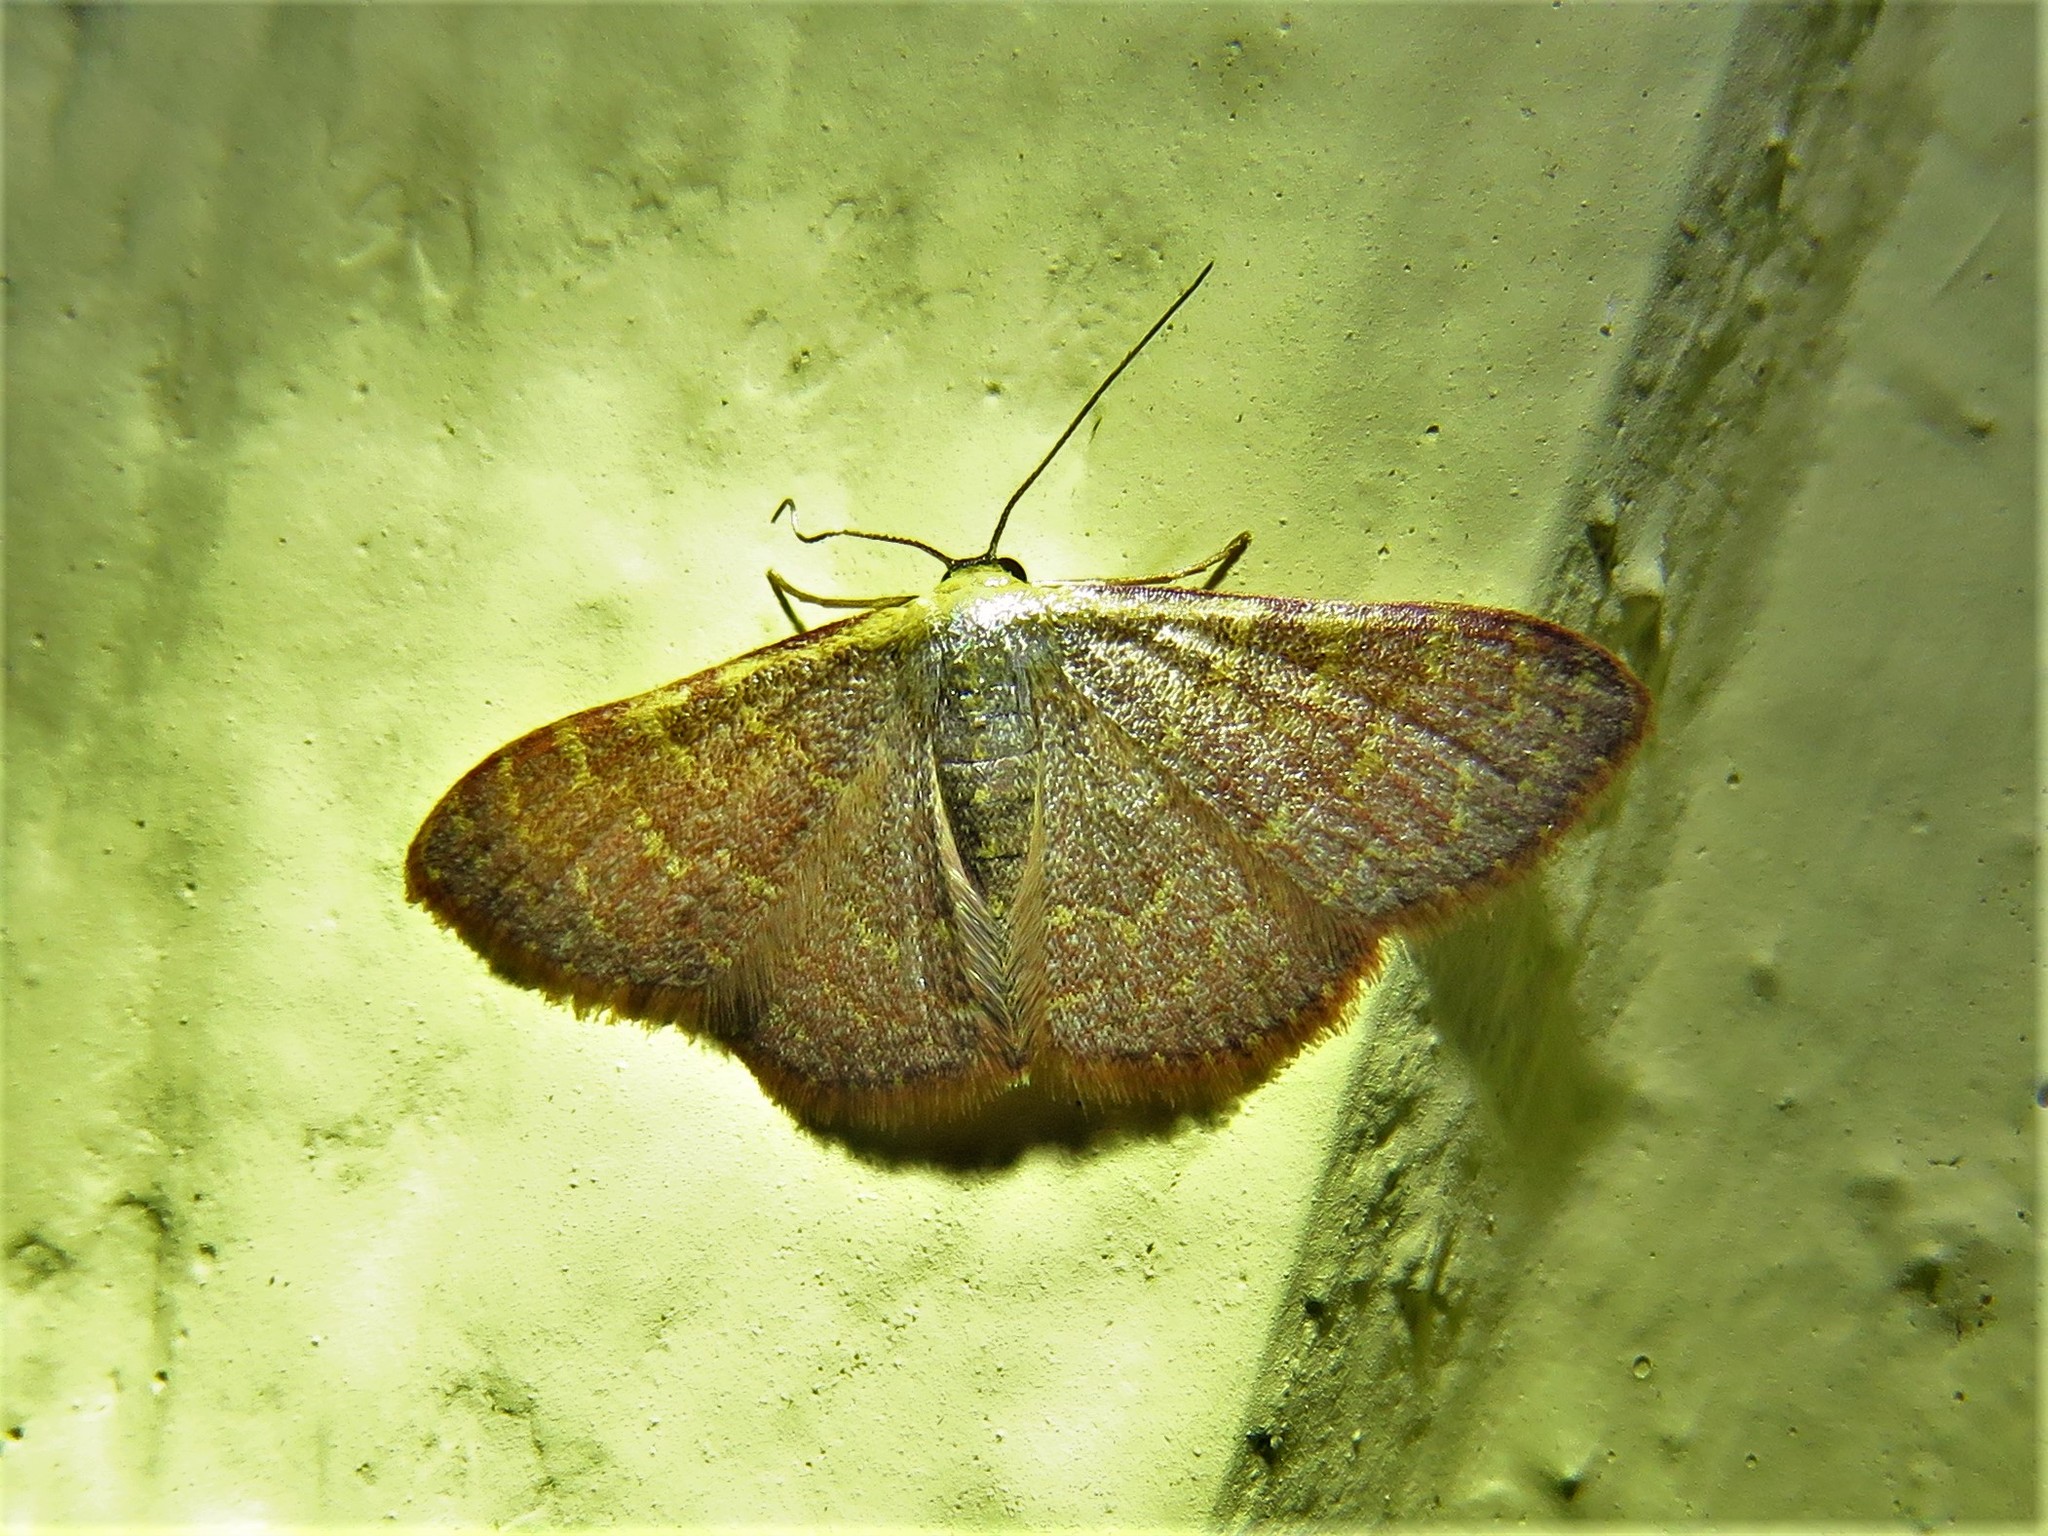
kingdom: Animalia
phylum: Arthropoda
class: Insecta
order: Lepidoptera
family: Geometridae
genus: Leptostales
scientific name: Leptostales pannaria
